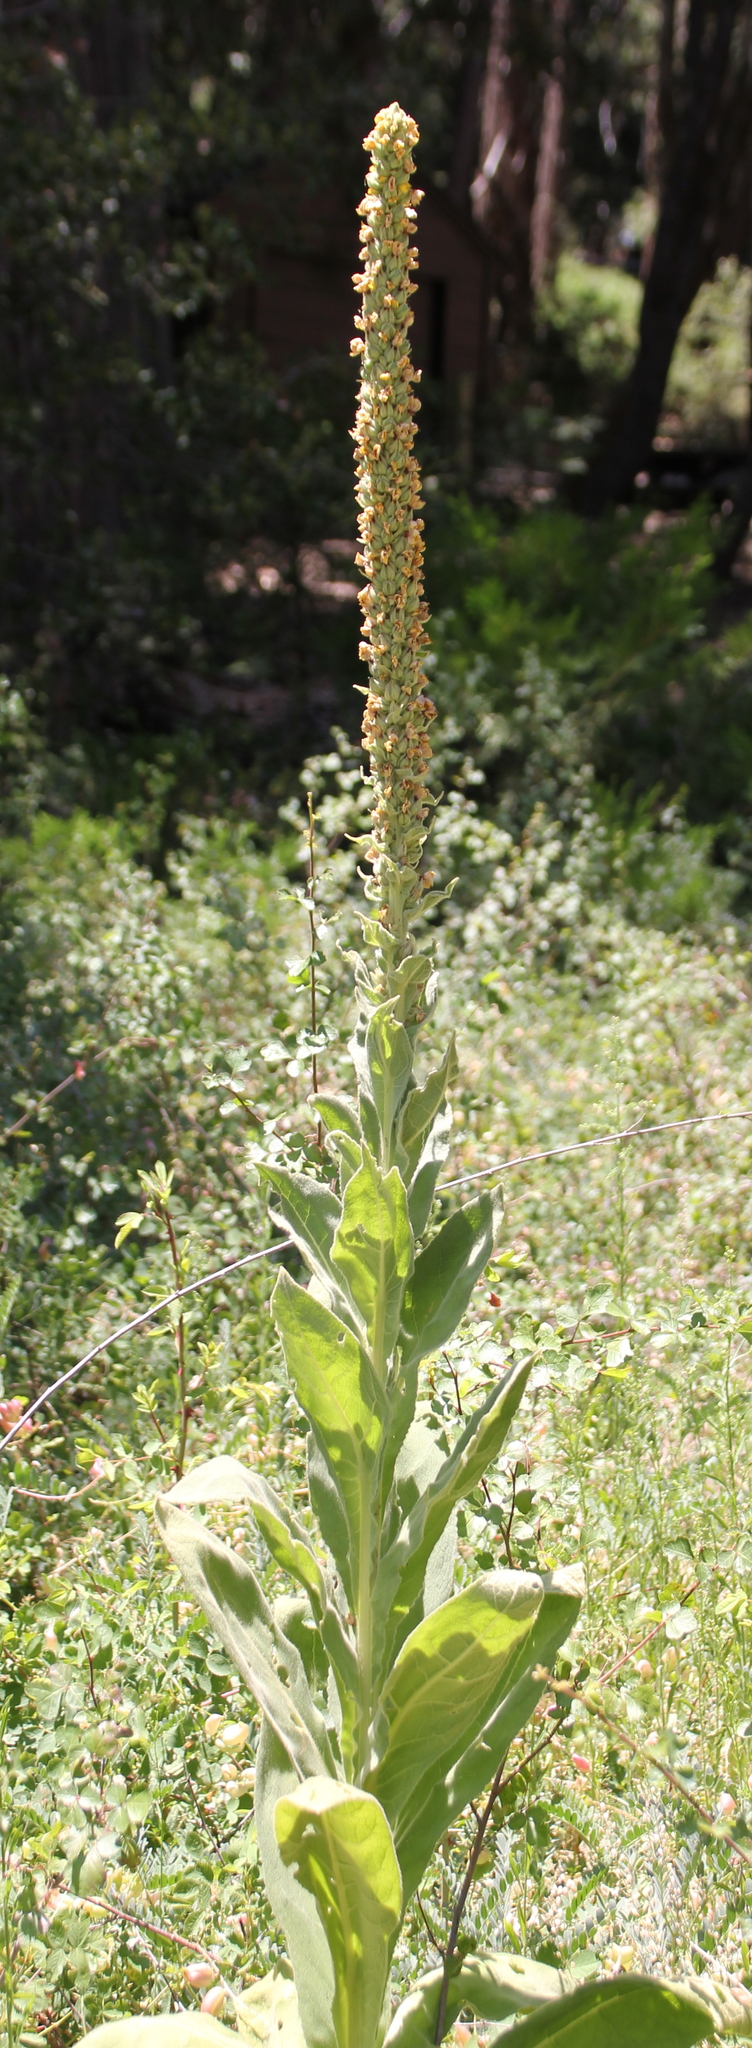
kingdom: Plantae
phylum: Tracheophyta
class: Magnoliopsida
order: Lamiales
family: Scrophulariaceae
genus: Verbascum
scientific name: Verbascum thapsus
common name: Common mullein
